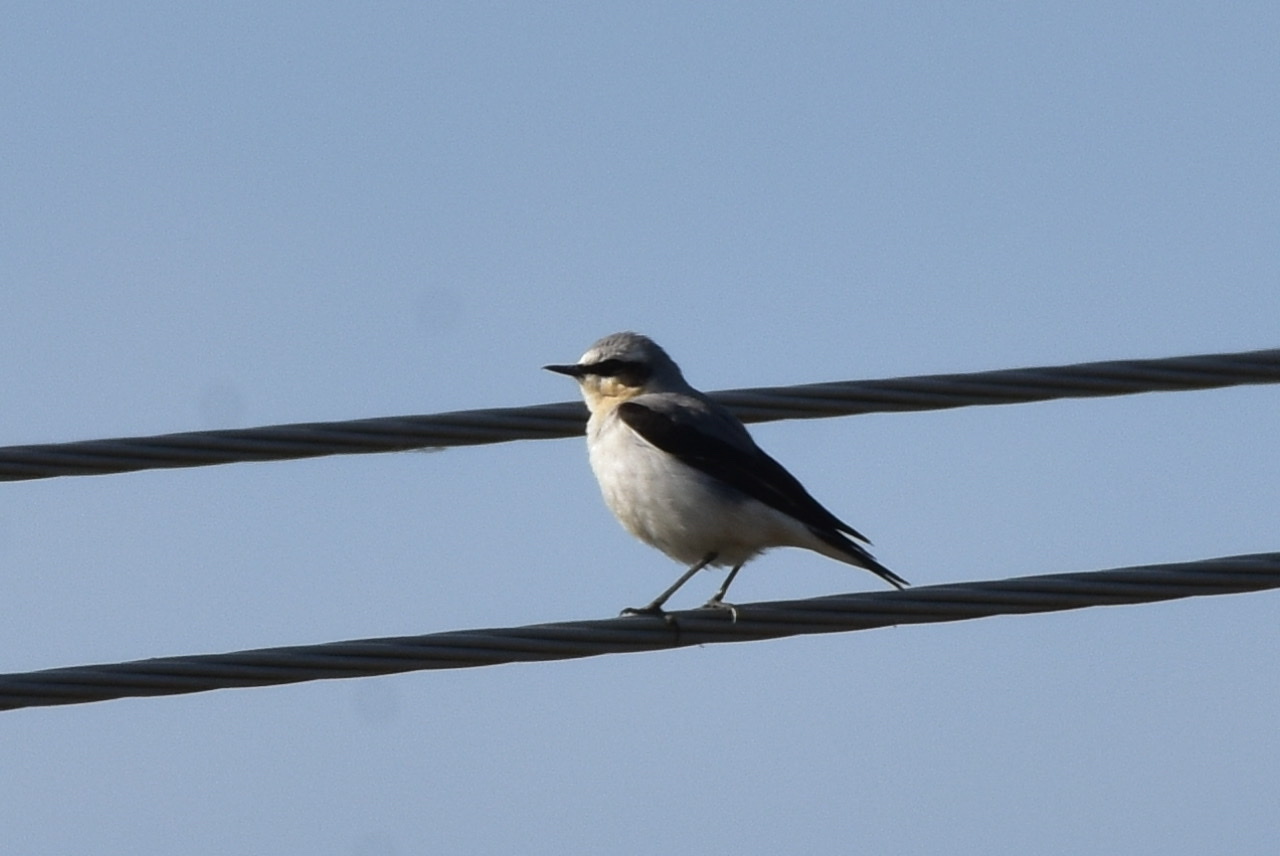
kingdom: Animalia
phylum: Chordata
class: Aves
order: Passeriformes
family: Muscicapidae
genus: Oenanthe
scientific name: Oenanthe oenanthe
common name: Northern wheatear
